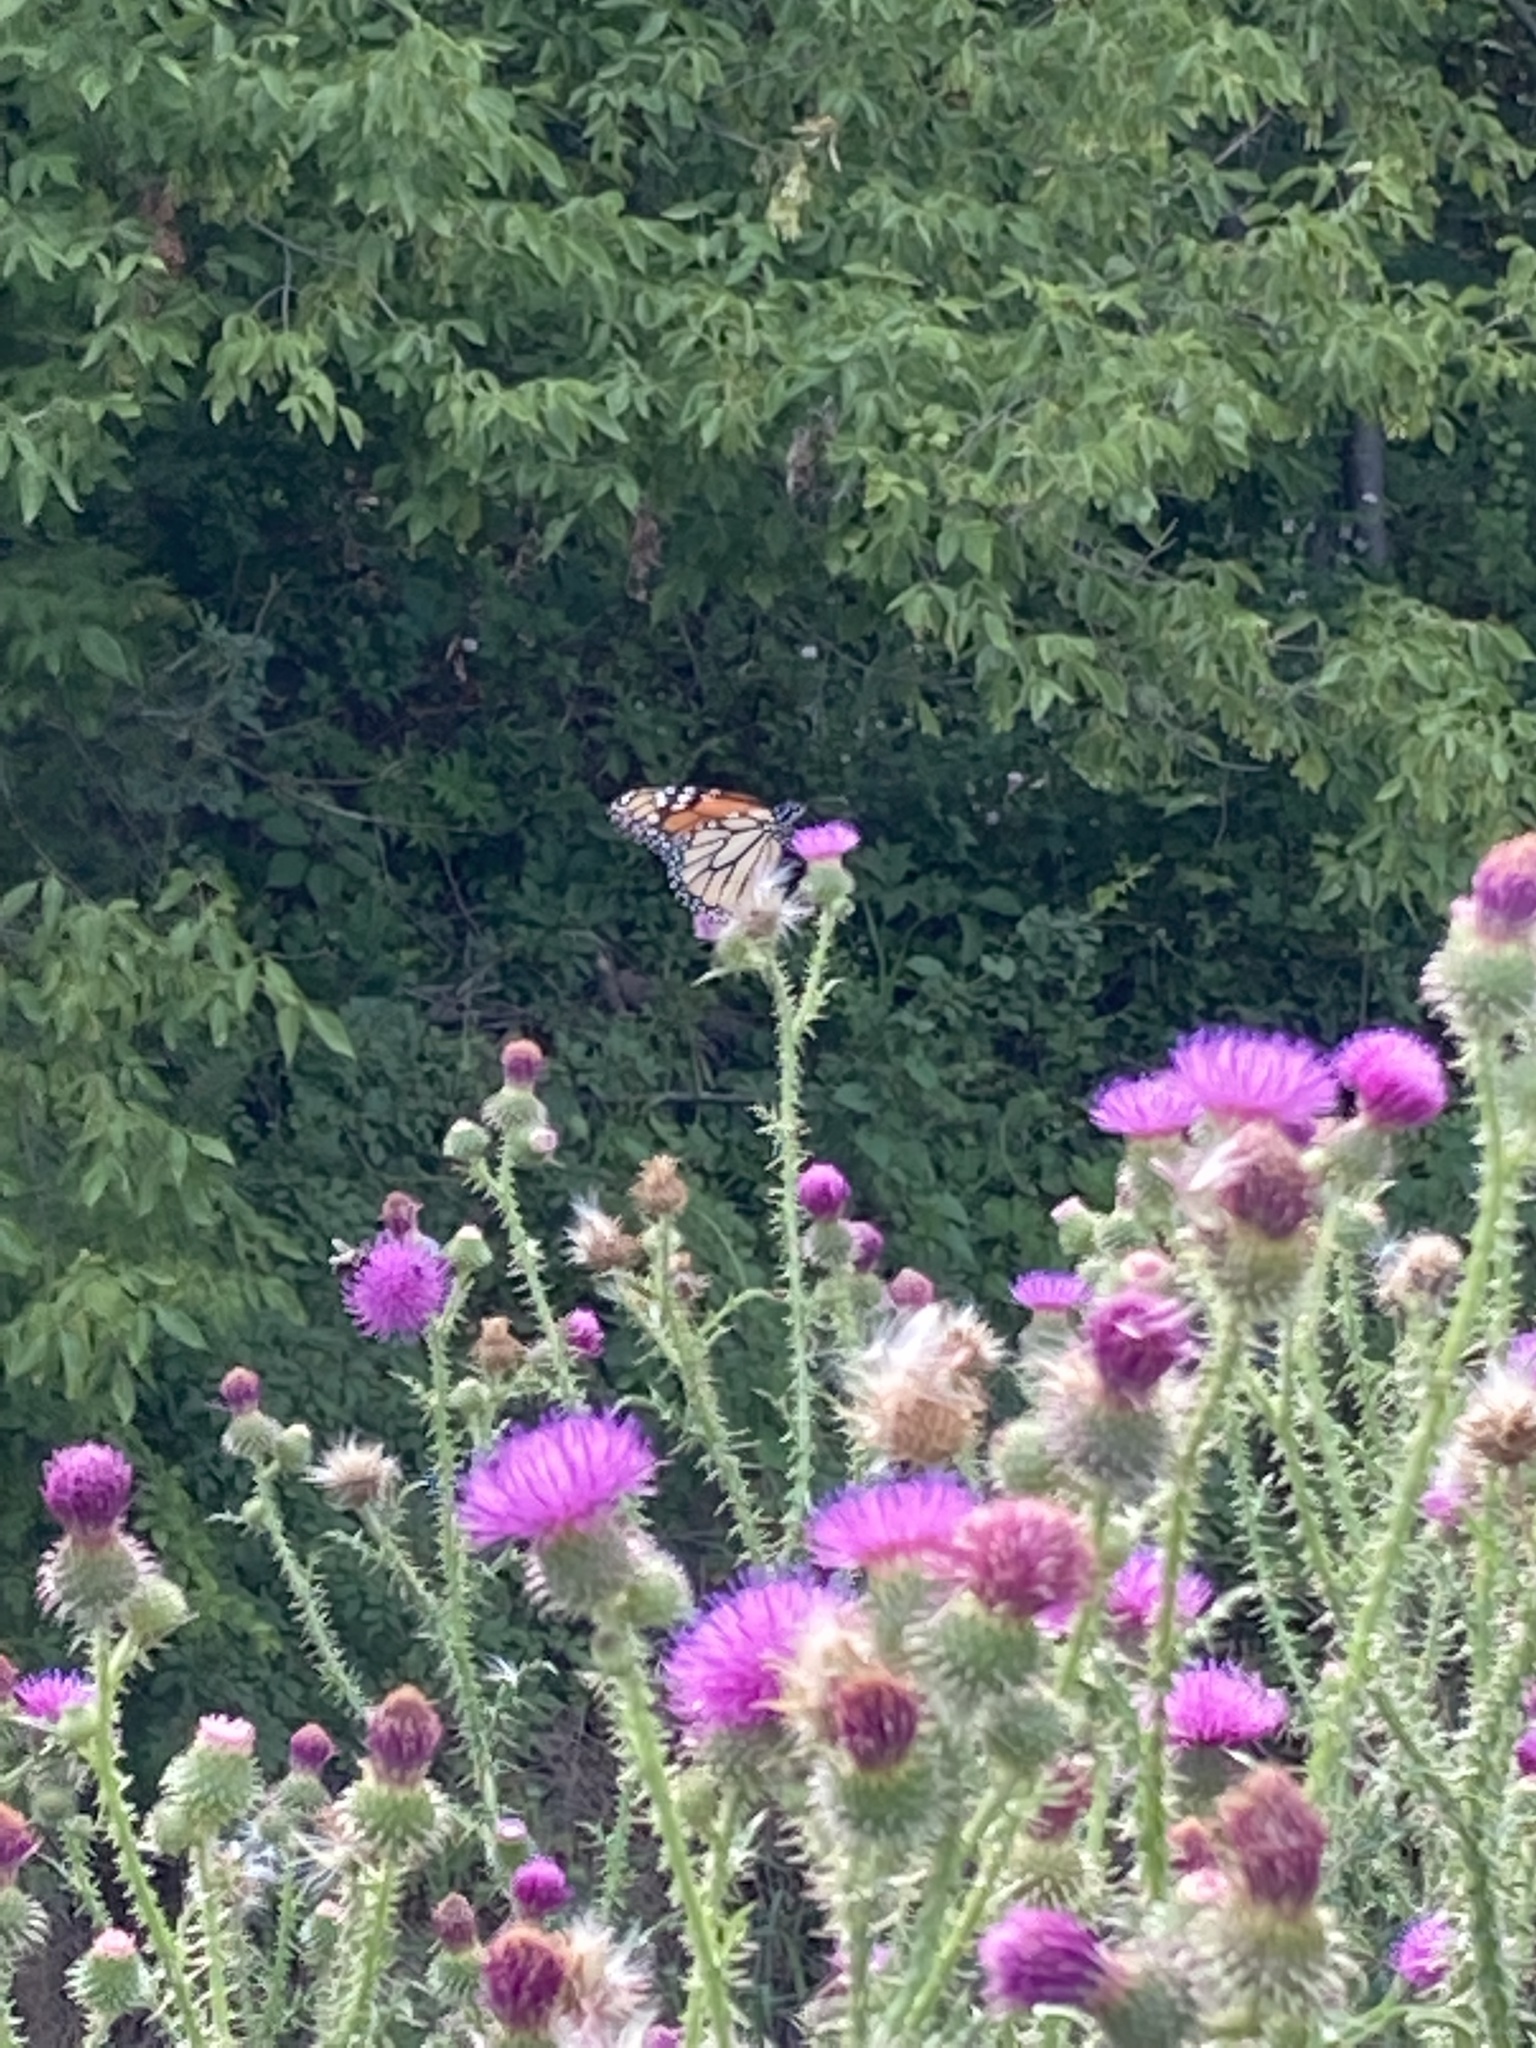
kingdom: Plantae
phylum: Tracheophyta
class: Magnoliopsida
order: Asterales
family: Asteraceae
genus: Carduus
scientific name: Carduus acanthoides
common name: Plumeless thistle
